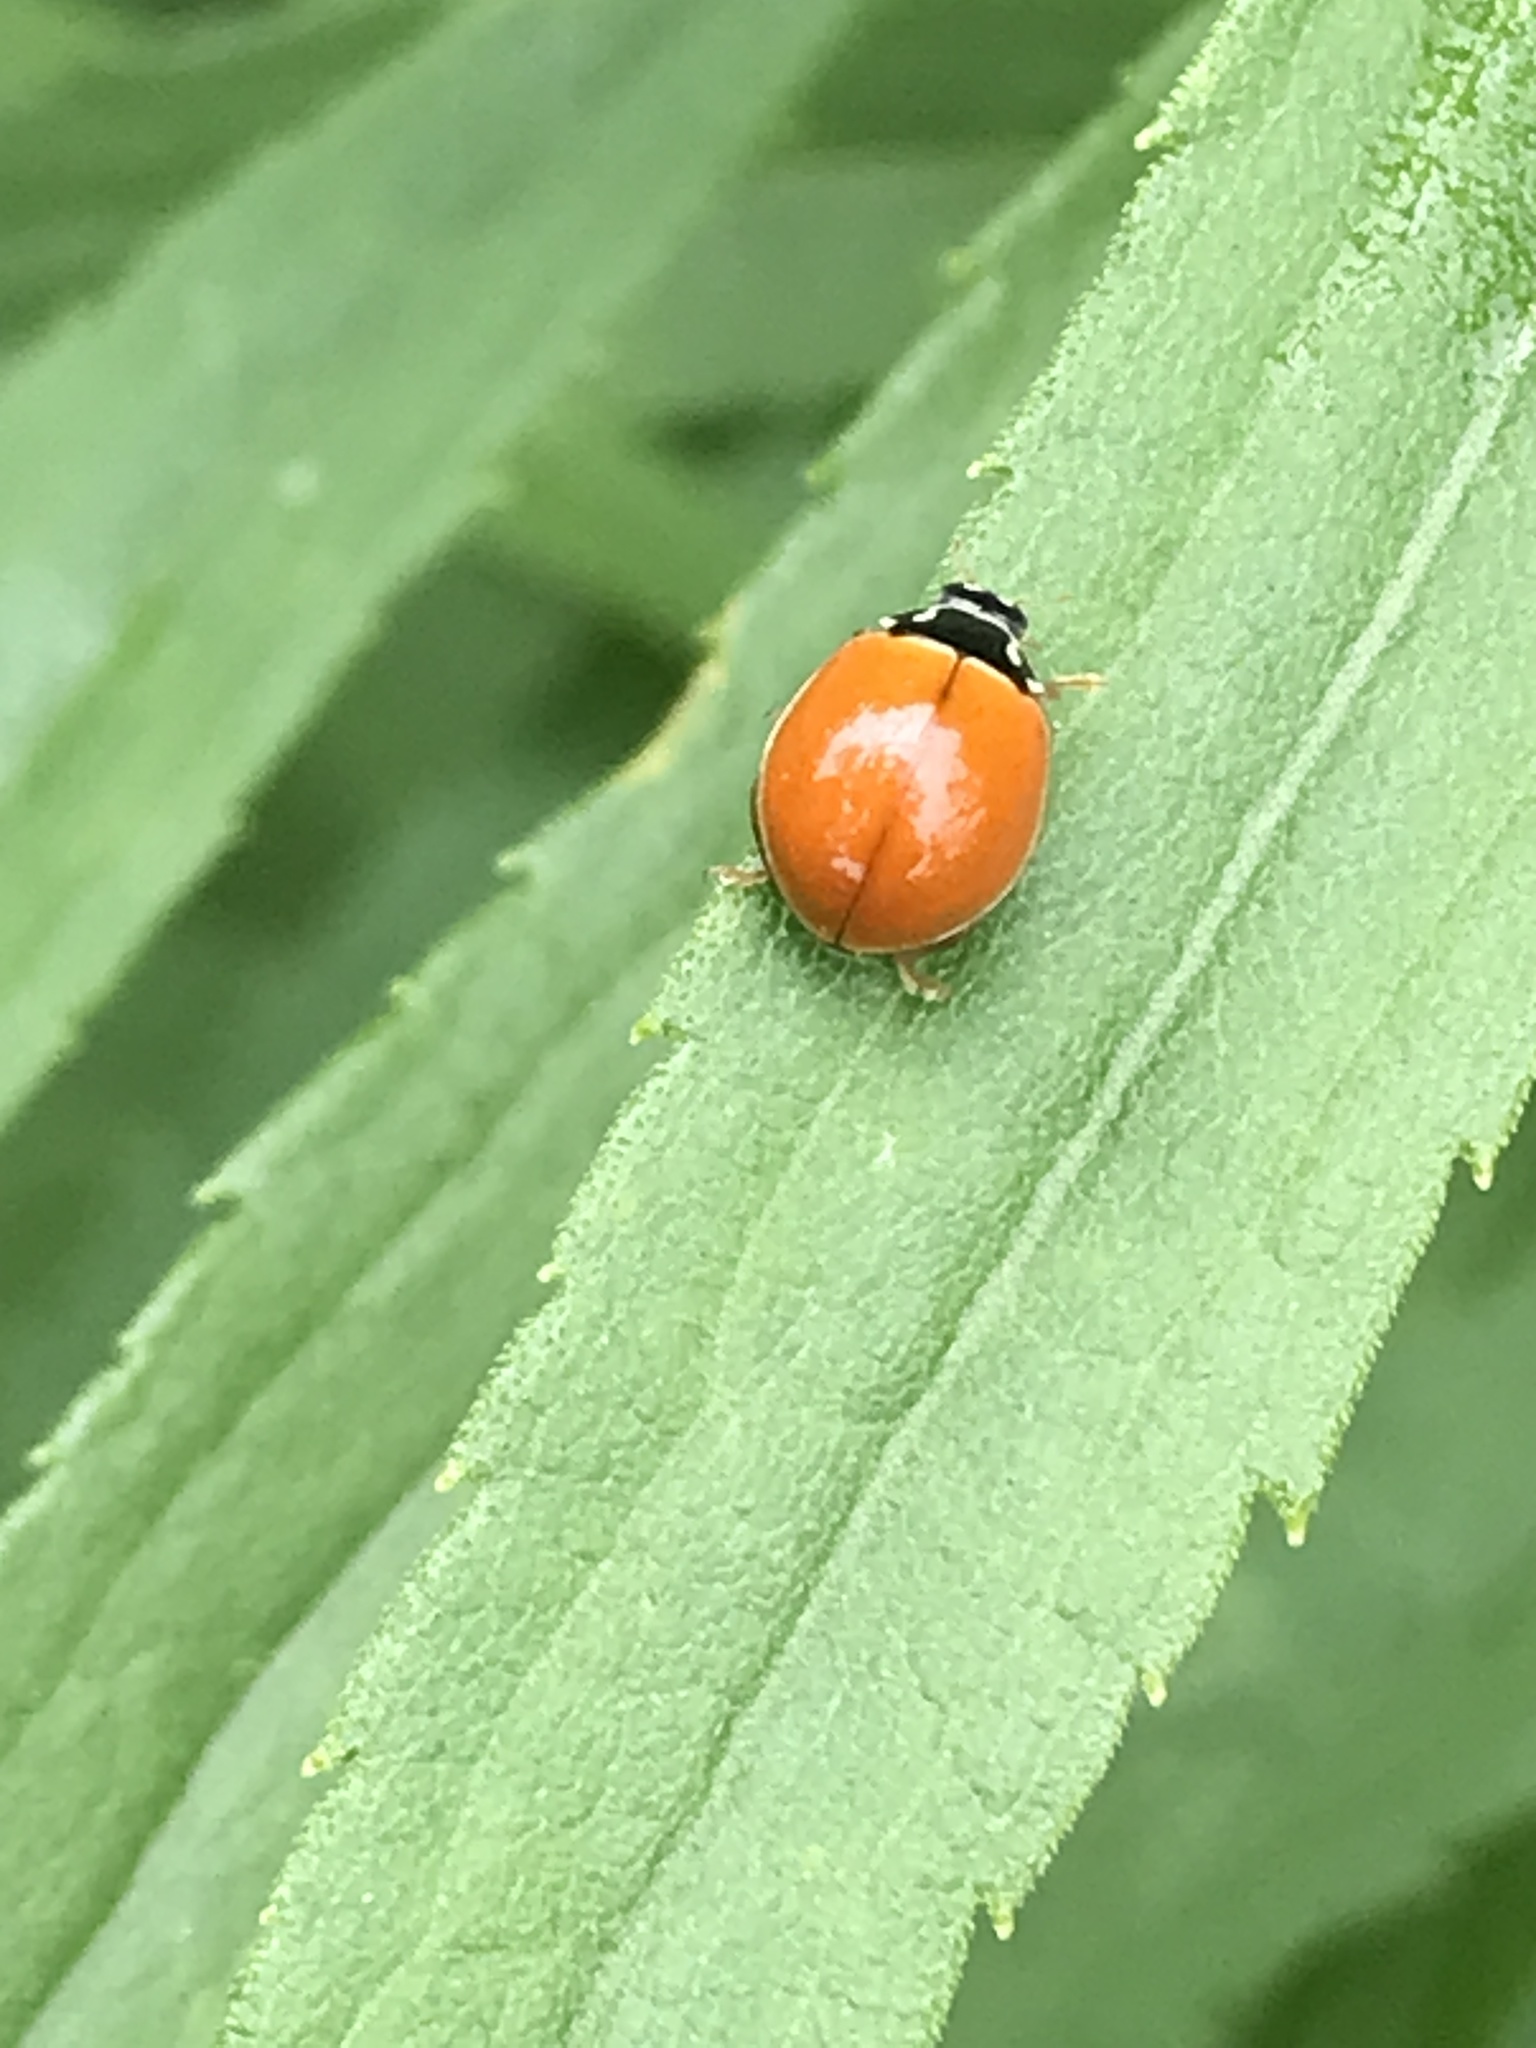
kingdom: Animalia
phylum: Arthropoda
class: Insecta
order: Coleoptera
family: Coccinellidae
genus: Cycloneda
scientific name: Cycloneda munda
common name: Polished lady beetle
